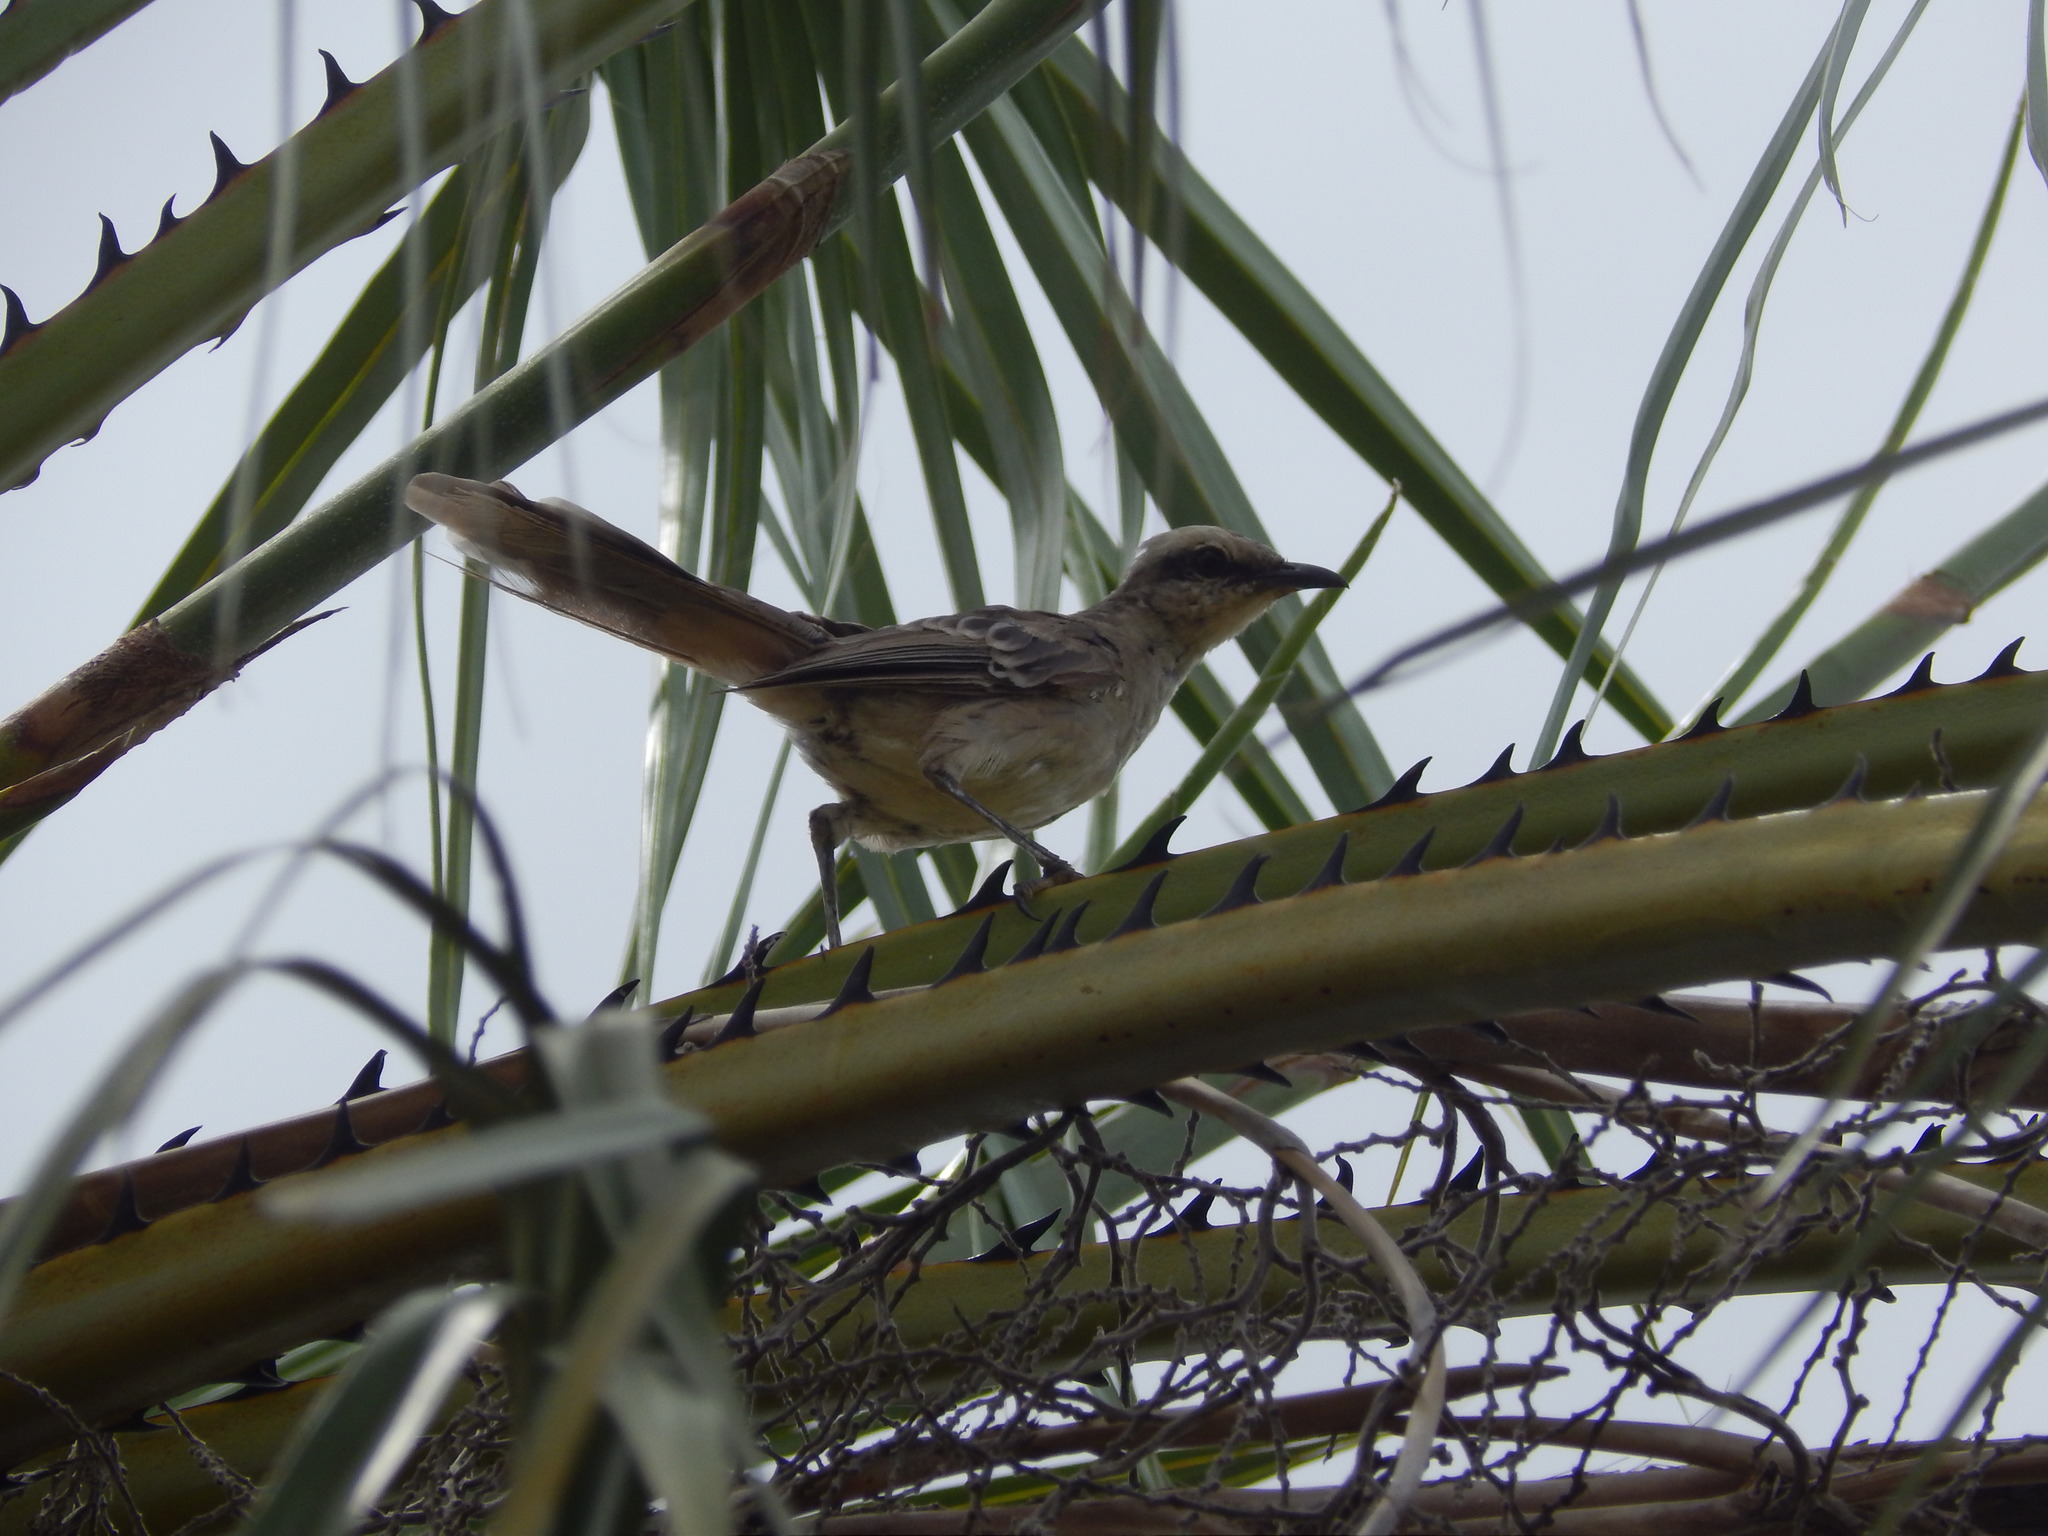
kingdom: Animalia
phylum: Chordata
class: Aves
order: Passeriformes
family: Mimidae
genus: Mimus
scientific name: Mimus saturninus
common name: Chalk-browed mockingbird
